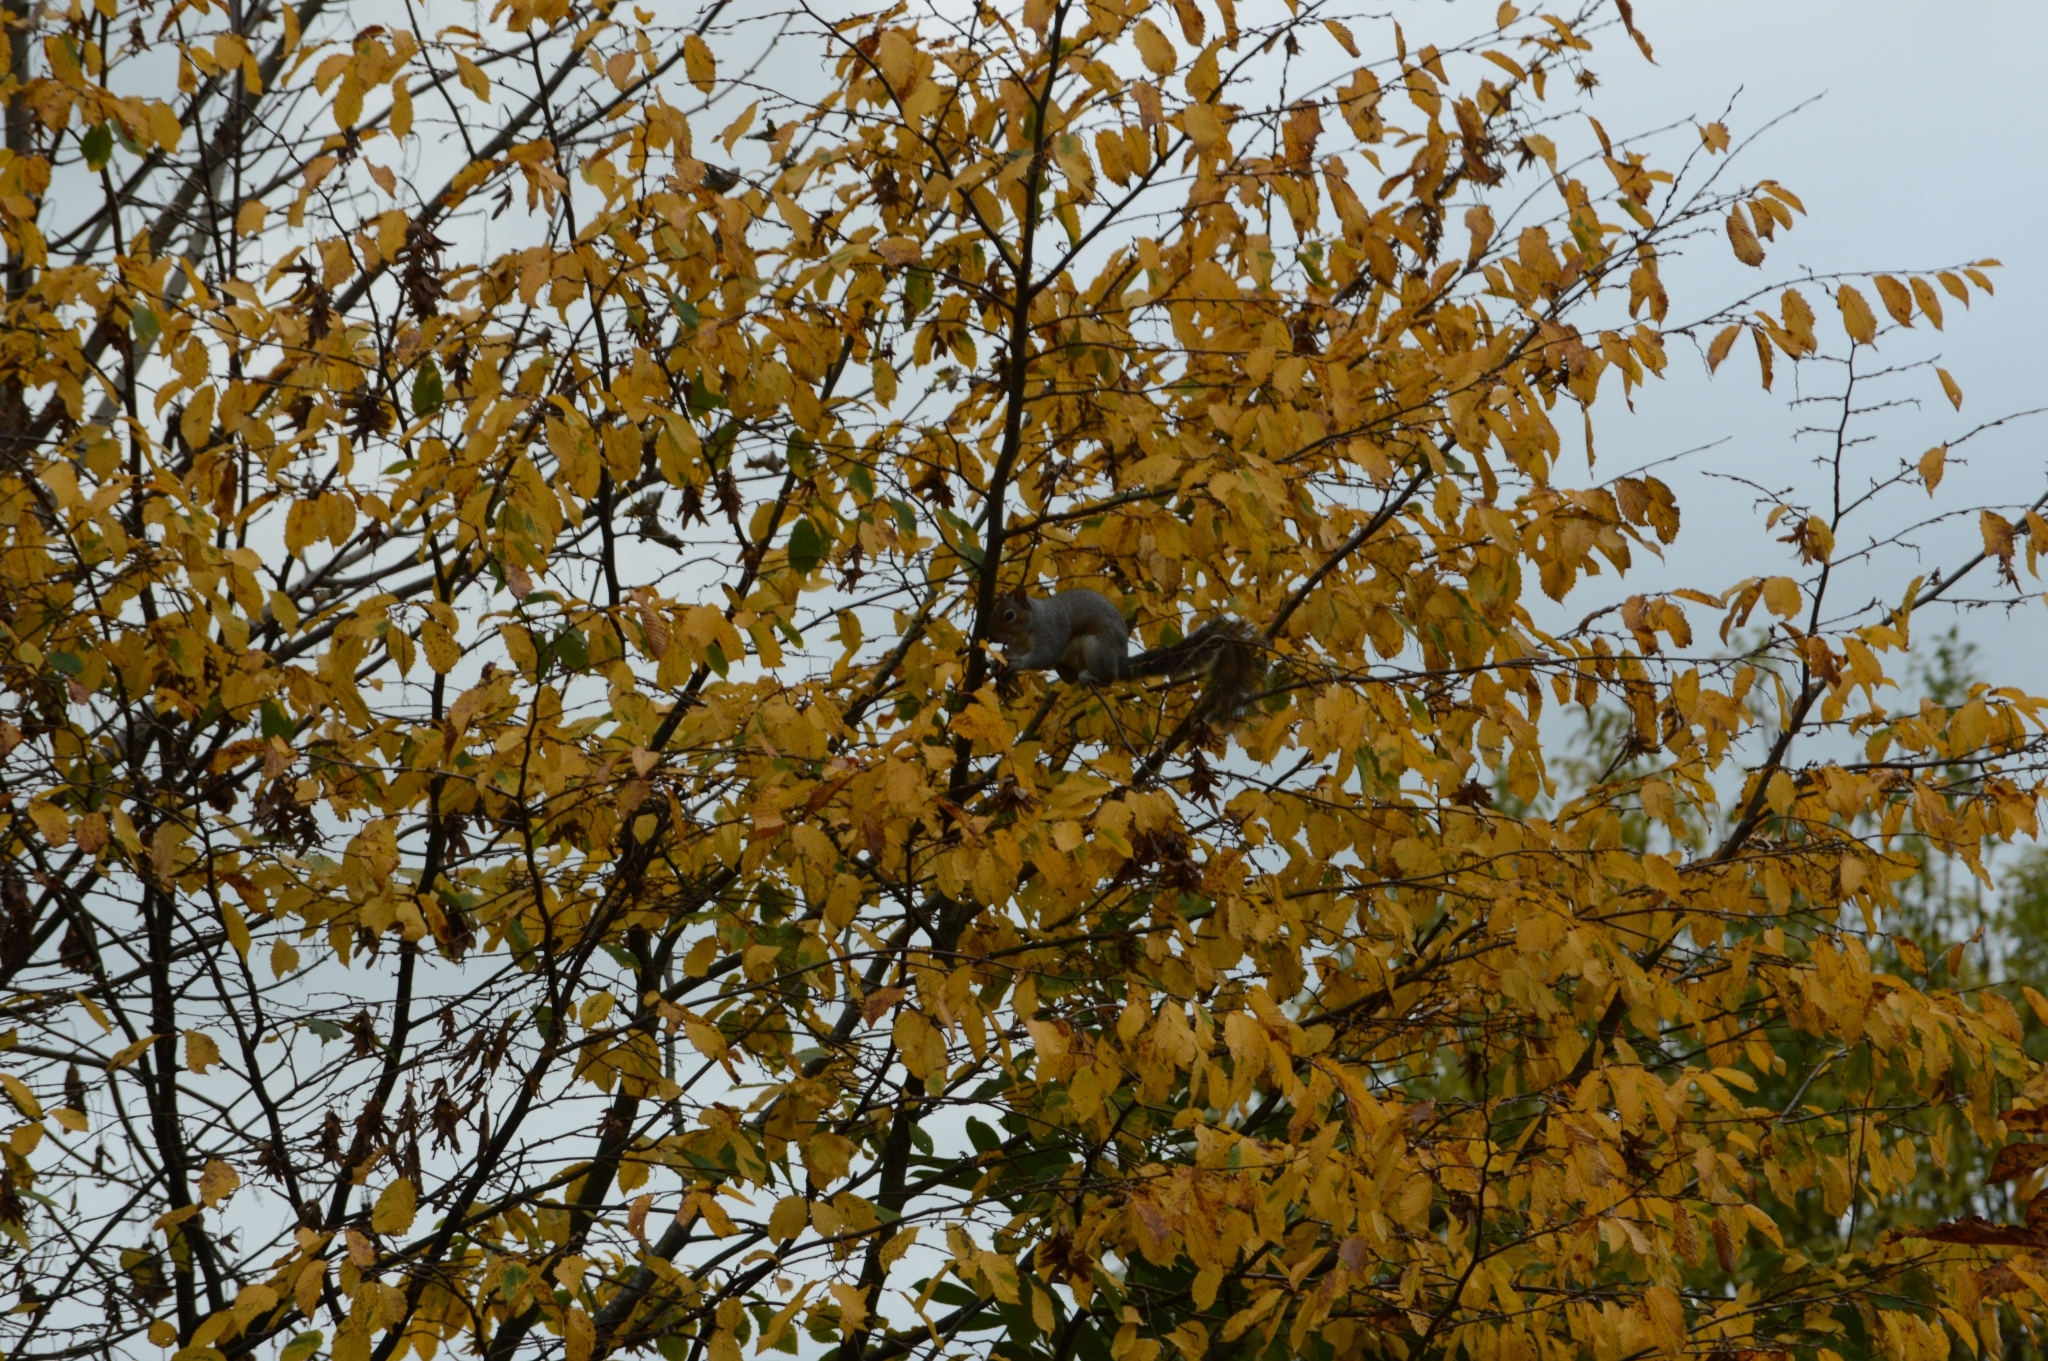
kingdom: Animalia
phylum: Chordata
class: Mammalia
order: Rodentia
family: Sciuridae
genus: Sciurus
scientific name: Sciurus carolinensis
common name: Eastern gray squirrel
